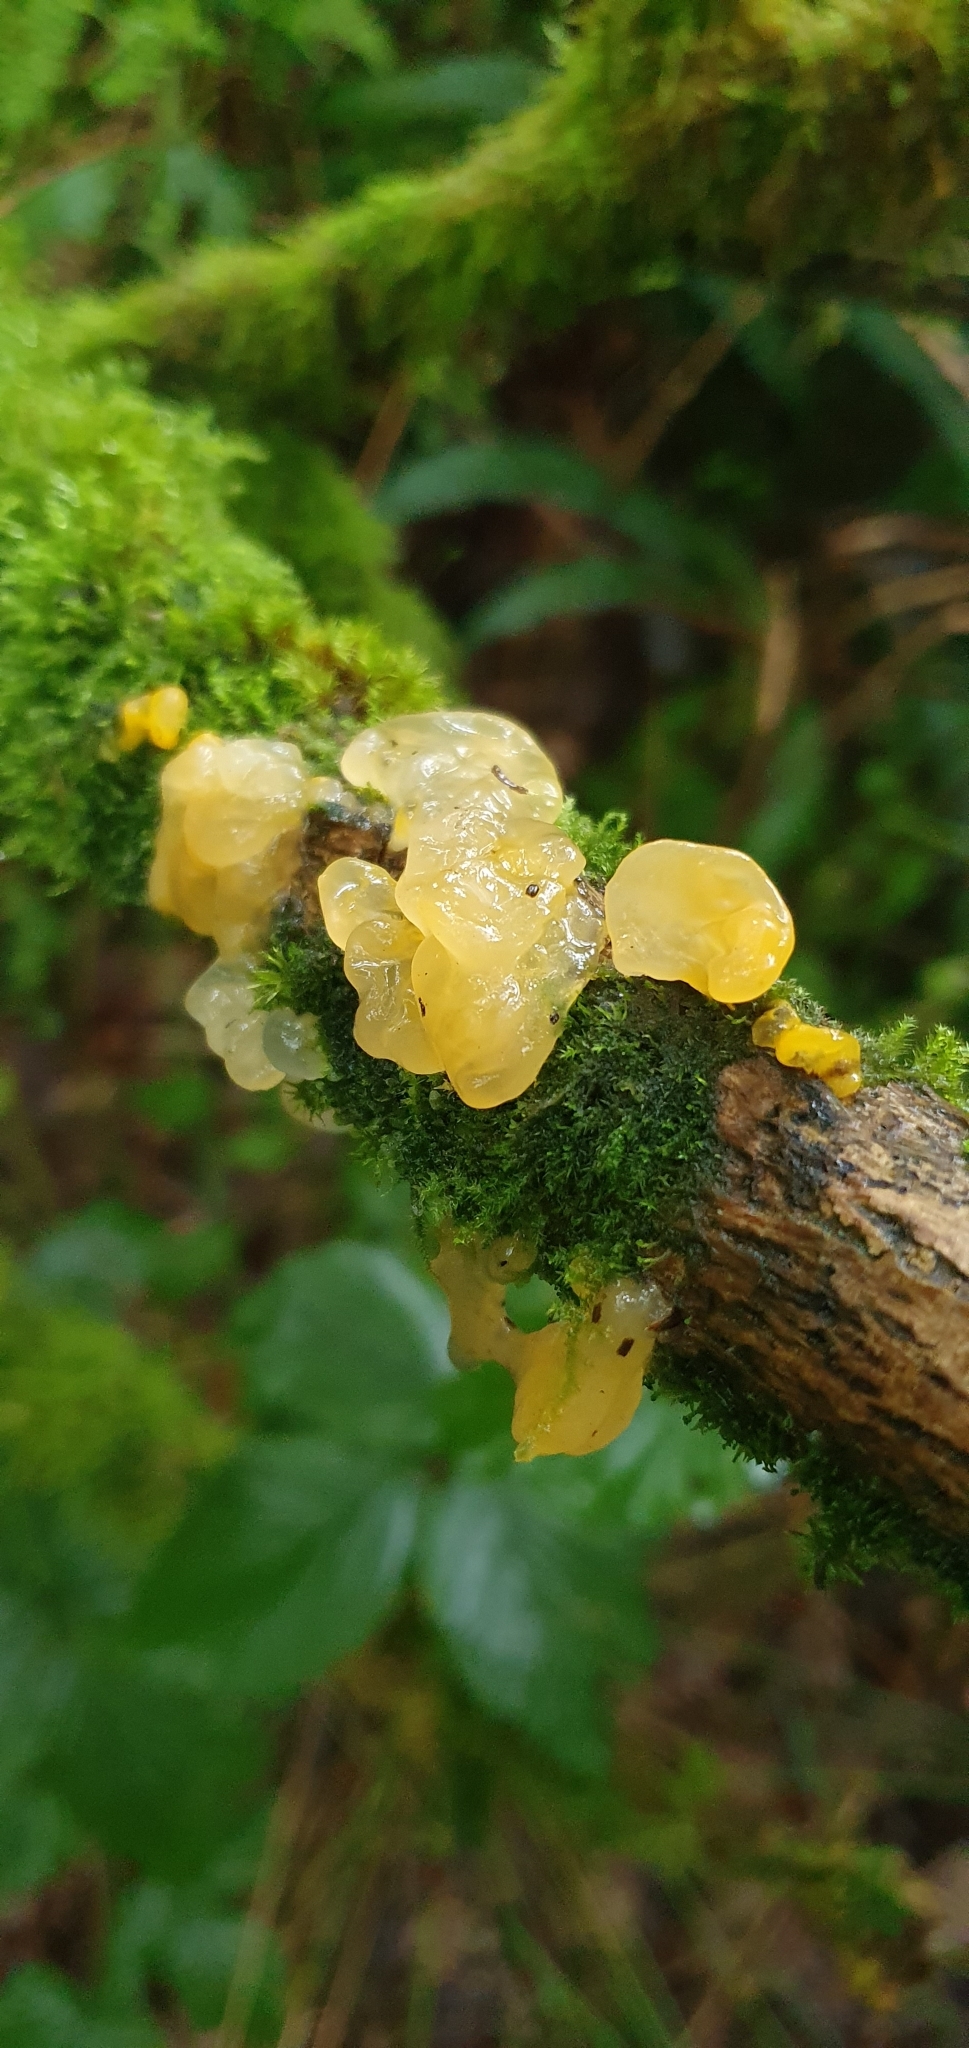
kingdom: Fungi
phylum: Basidiomycota
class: Tremellomycetes
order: Tremellales
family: Tremellaceae
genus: Tremella
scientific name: Tremella mesenterica
